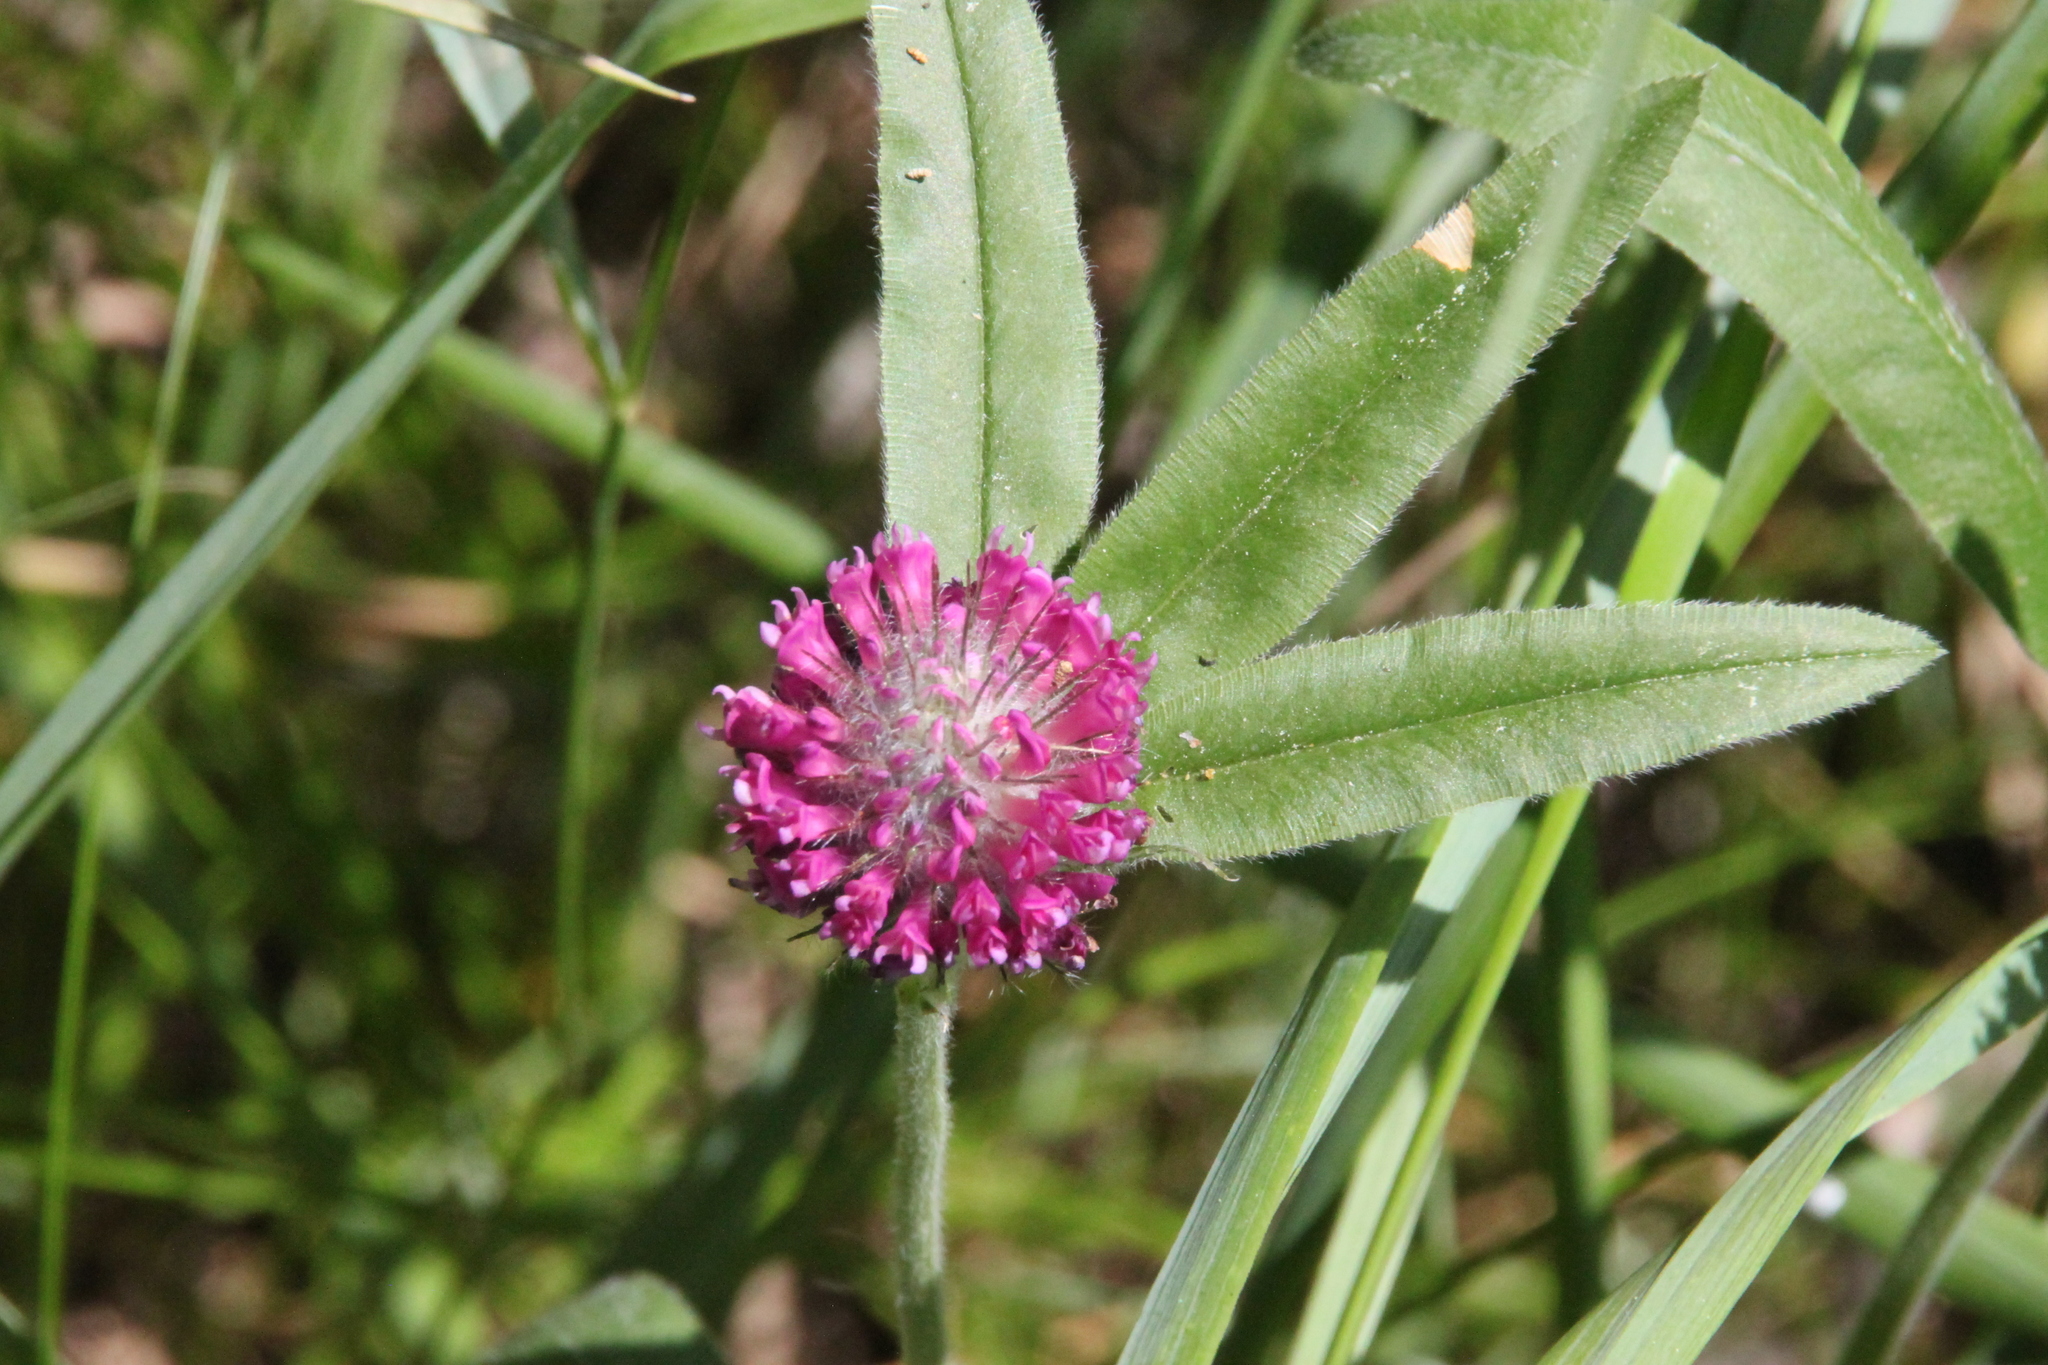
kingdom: Plantae
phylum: Tracheophyta
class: Magnoliopsida
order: Fabales
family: Fabaceae
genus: Trifolium
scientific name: Trifolium alpestre
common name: Owl-head clover
